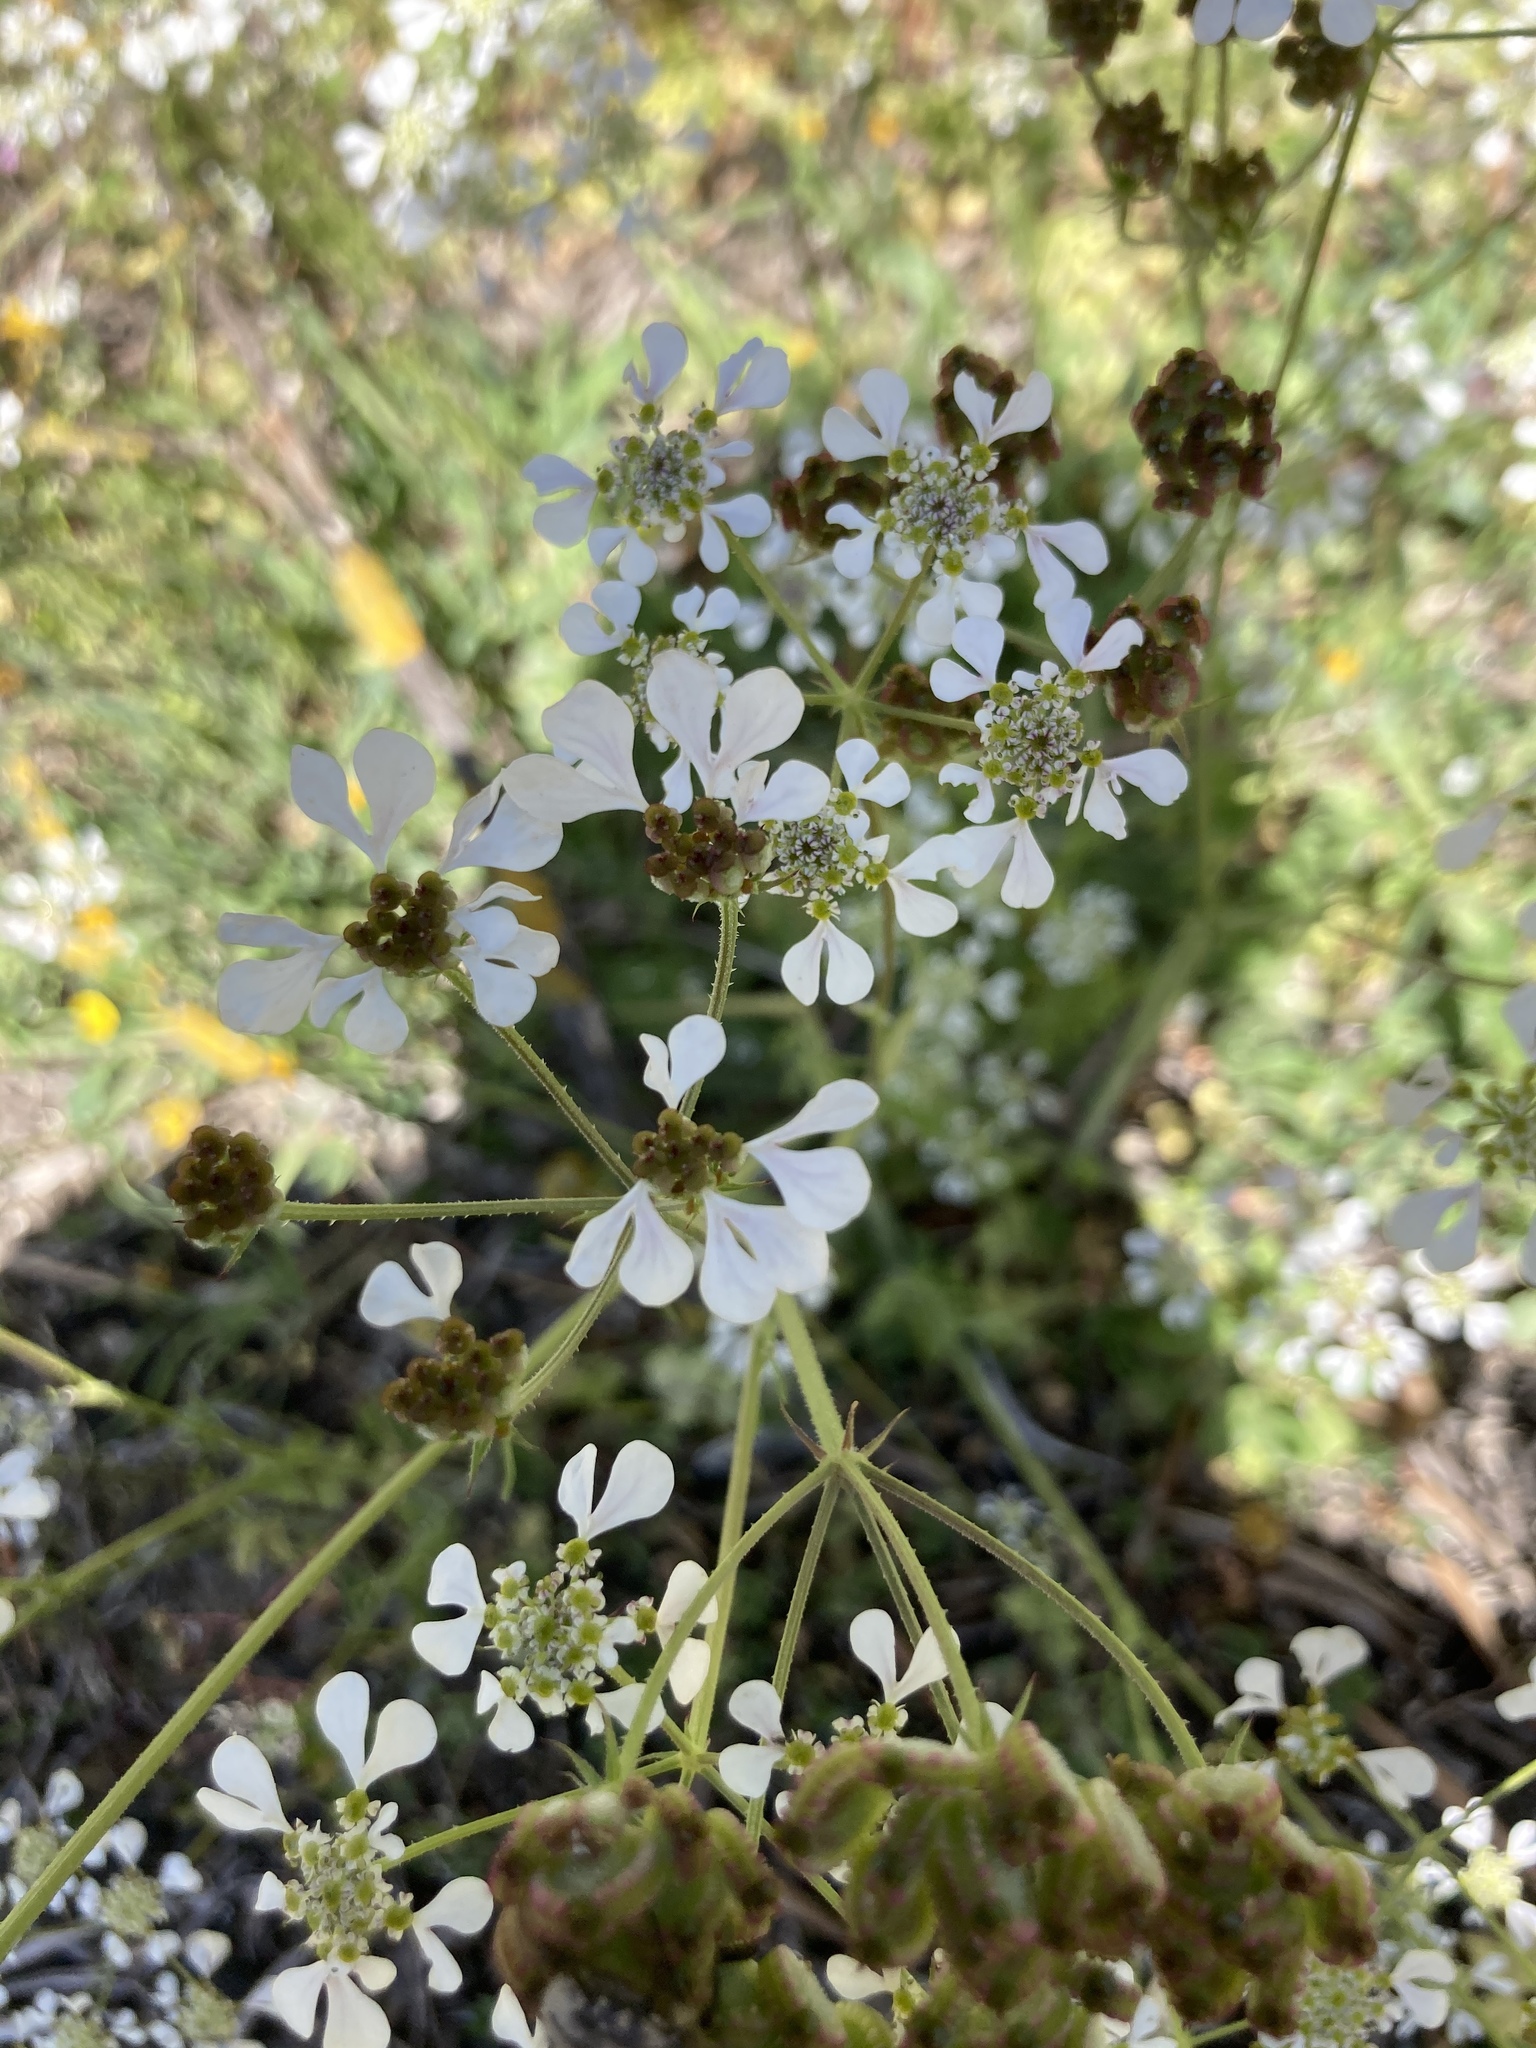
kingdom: Plantae
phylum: Tracheophyta
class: Magnoliopsida
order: Apiales
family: Apiaceae
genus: Tordylium
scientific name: Tordylium apulum
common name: Mediterranean hartwort
